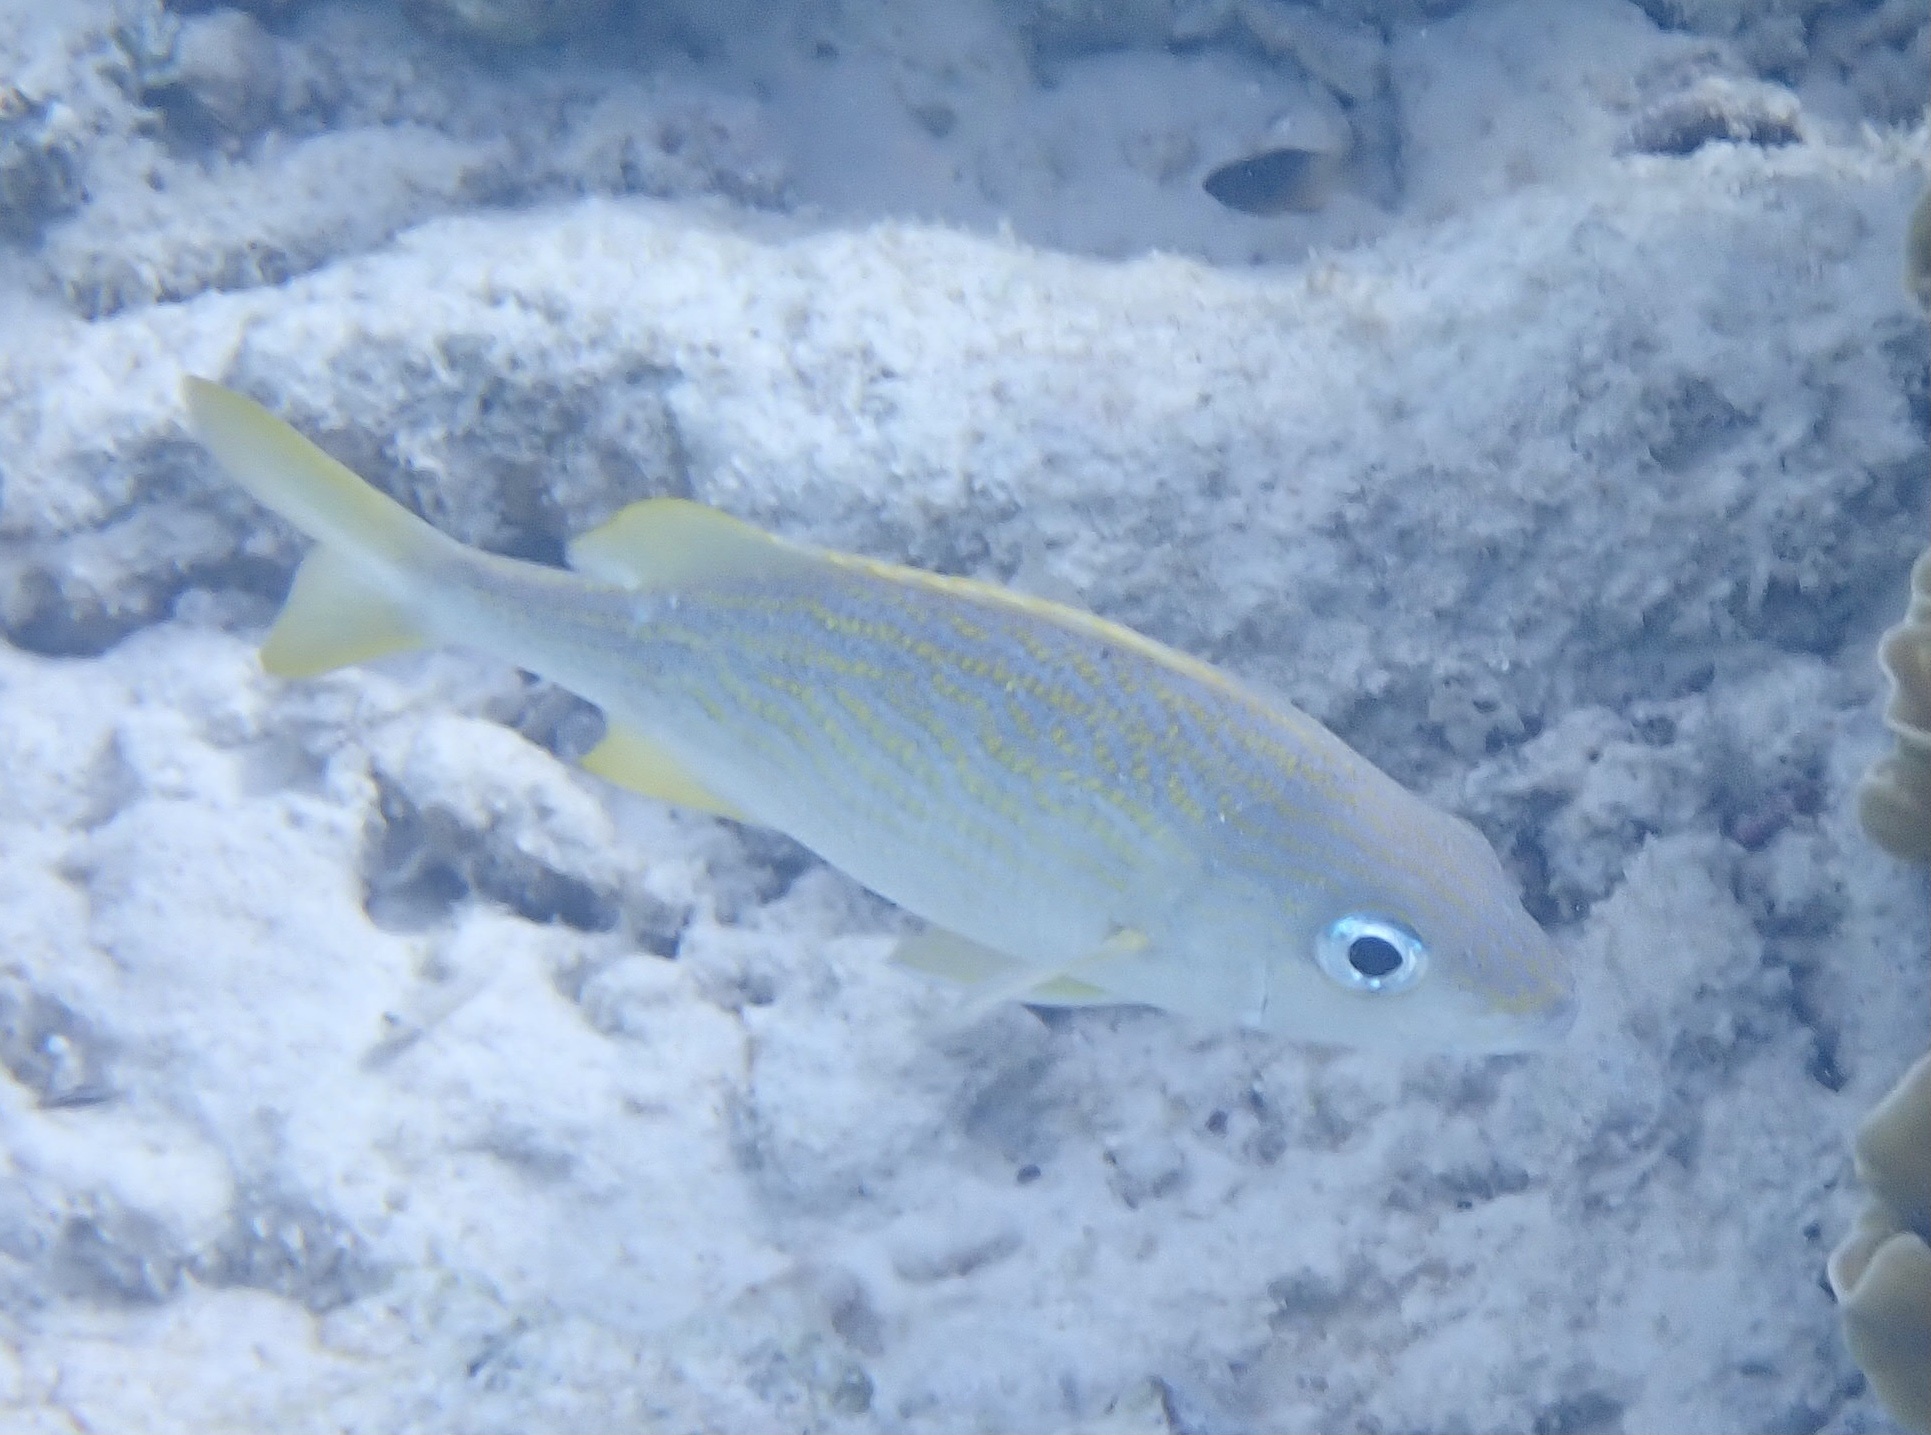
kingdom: Animalia
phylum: Chordata
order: Perciformes
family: Haemulidae
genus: Haemulon
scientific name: Haemulon flavolineatum
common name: French grunt
